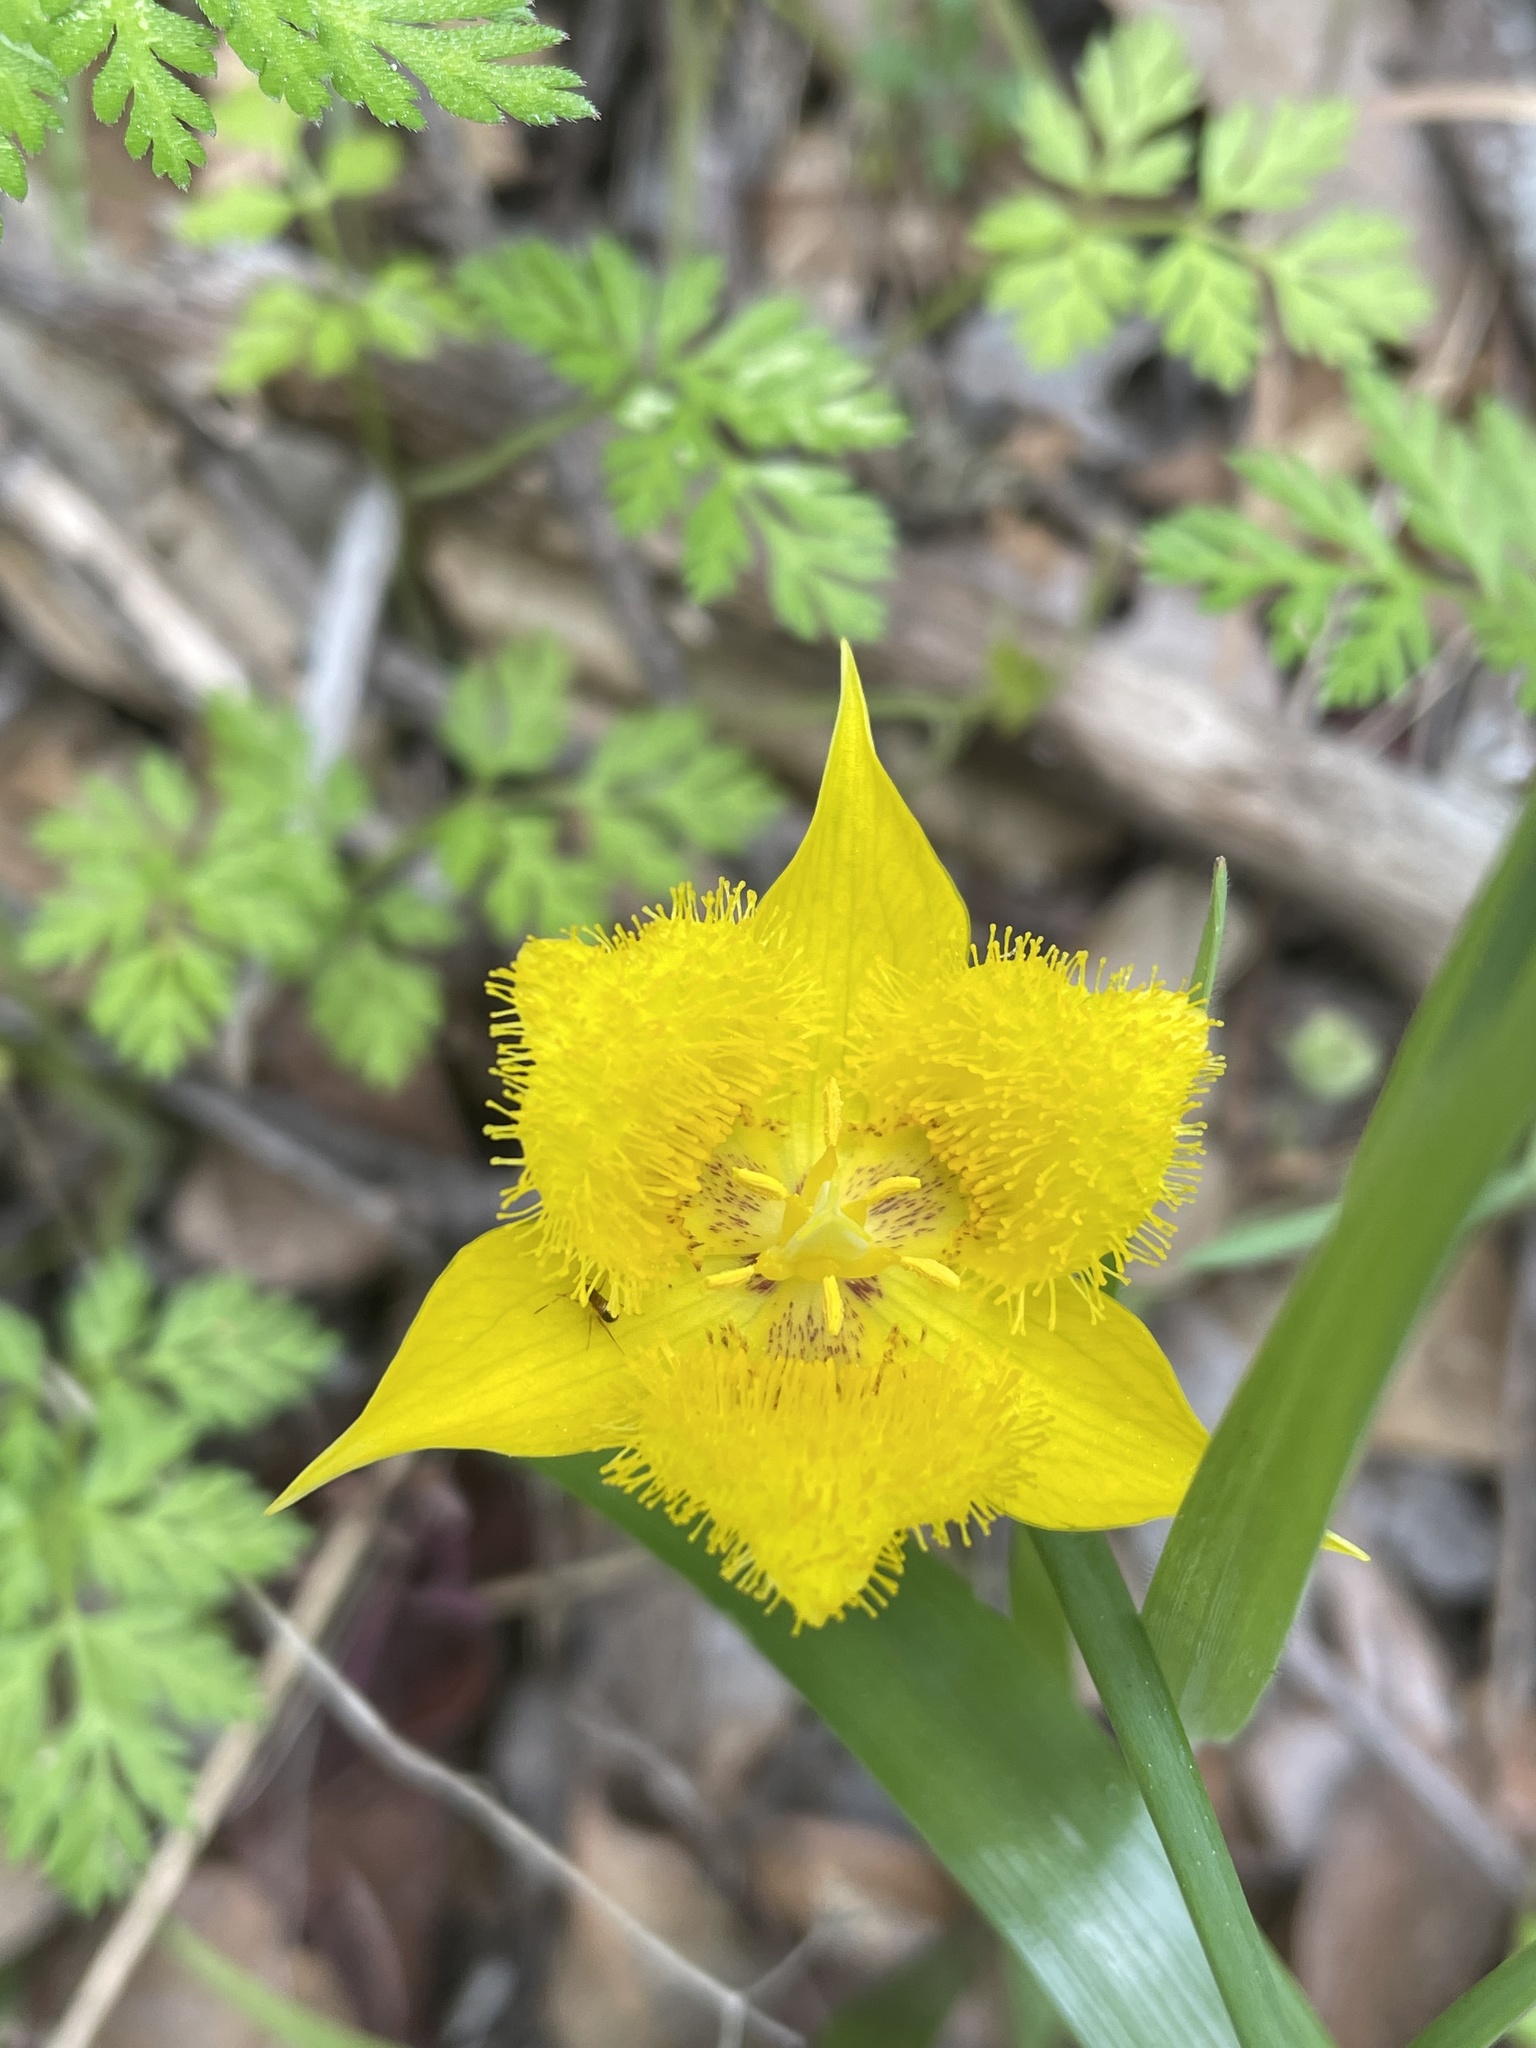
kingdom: Plantae
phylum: Tracheophyta
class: Liliopsida
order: Liliales
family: Liliaceae
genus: Calochortus
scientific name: Calochortus monophyllus
